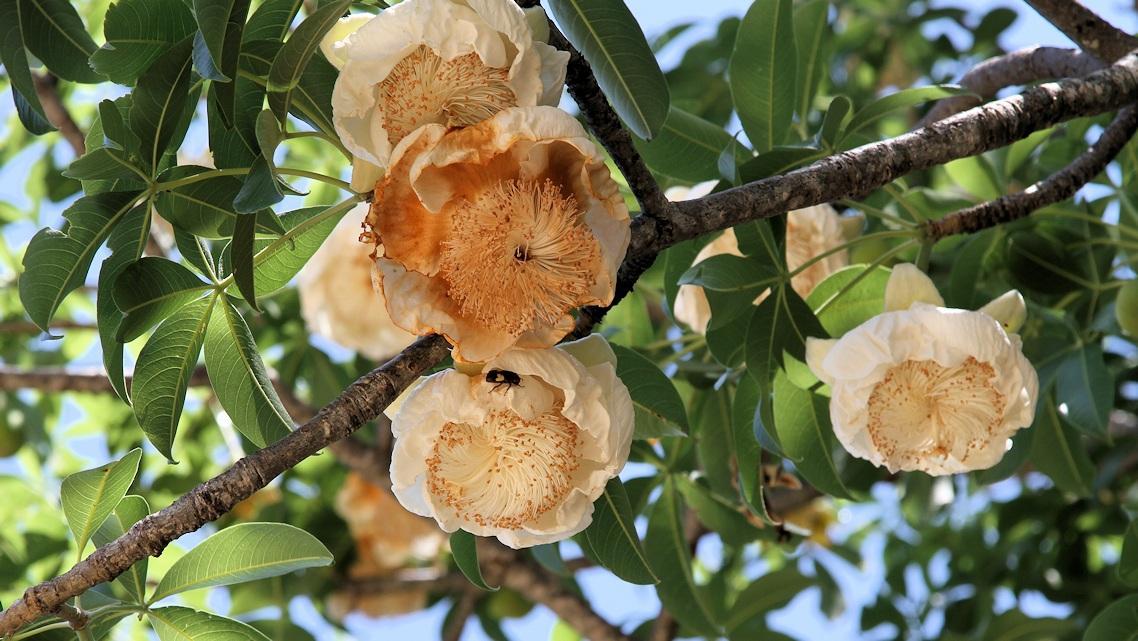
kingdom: Plantae
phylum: Tracheophyta
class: Magnoliopsida
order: Malvales
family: Malvaceae
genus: Adansonia
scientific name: Adansonia digitata
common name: Dead-rat-tree
